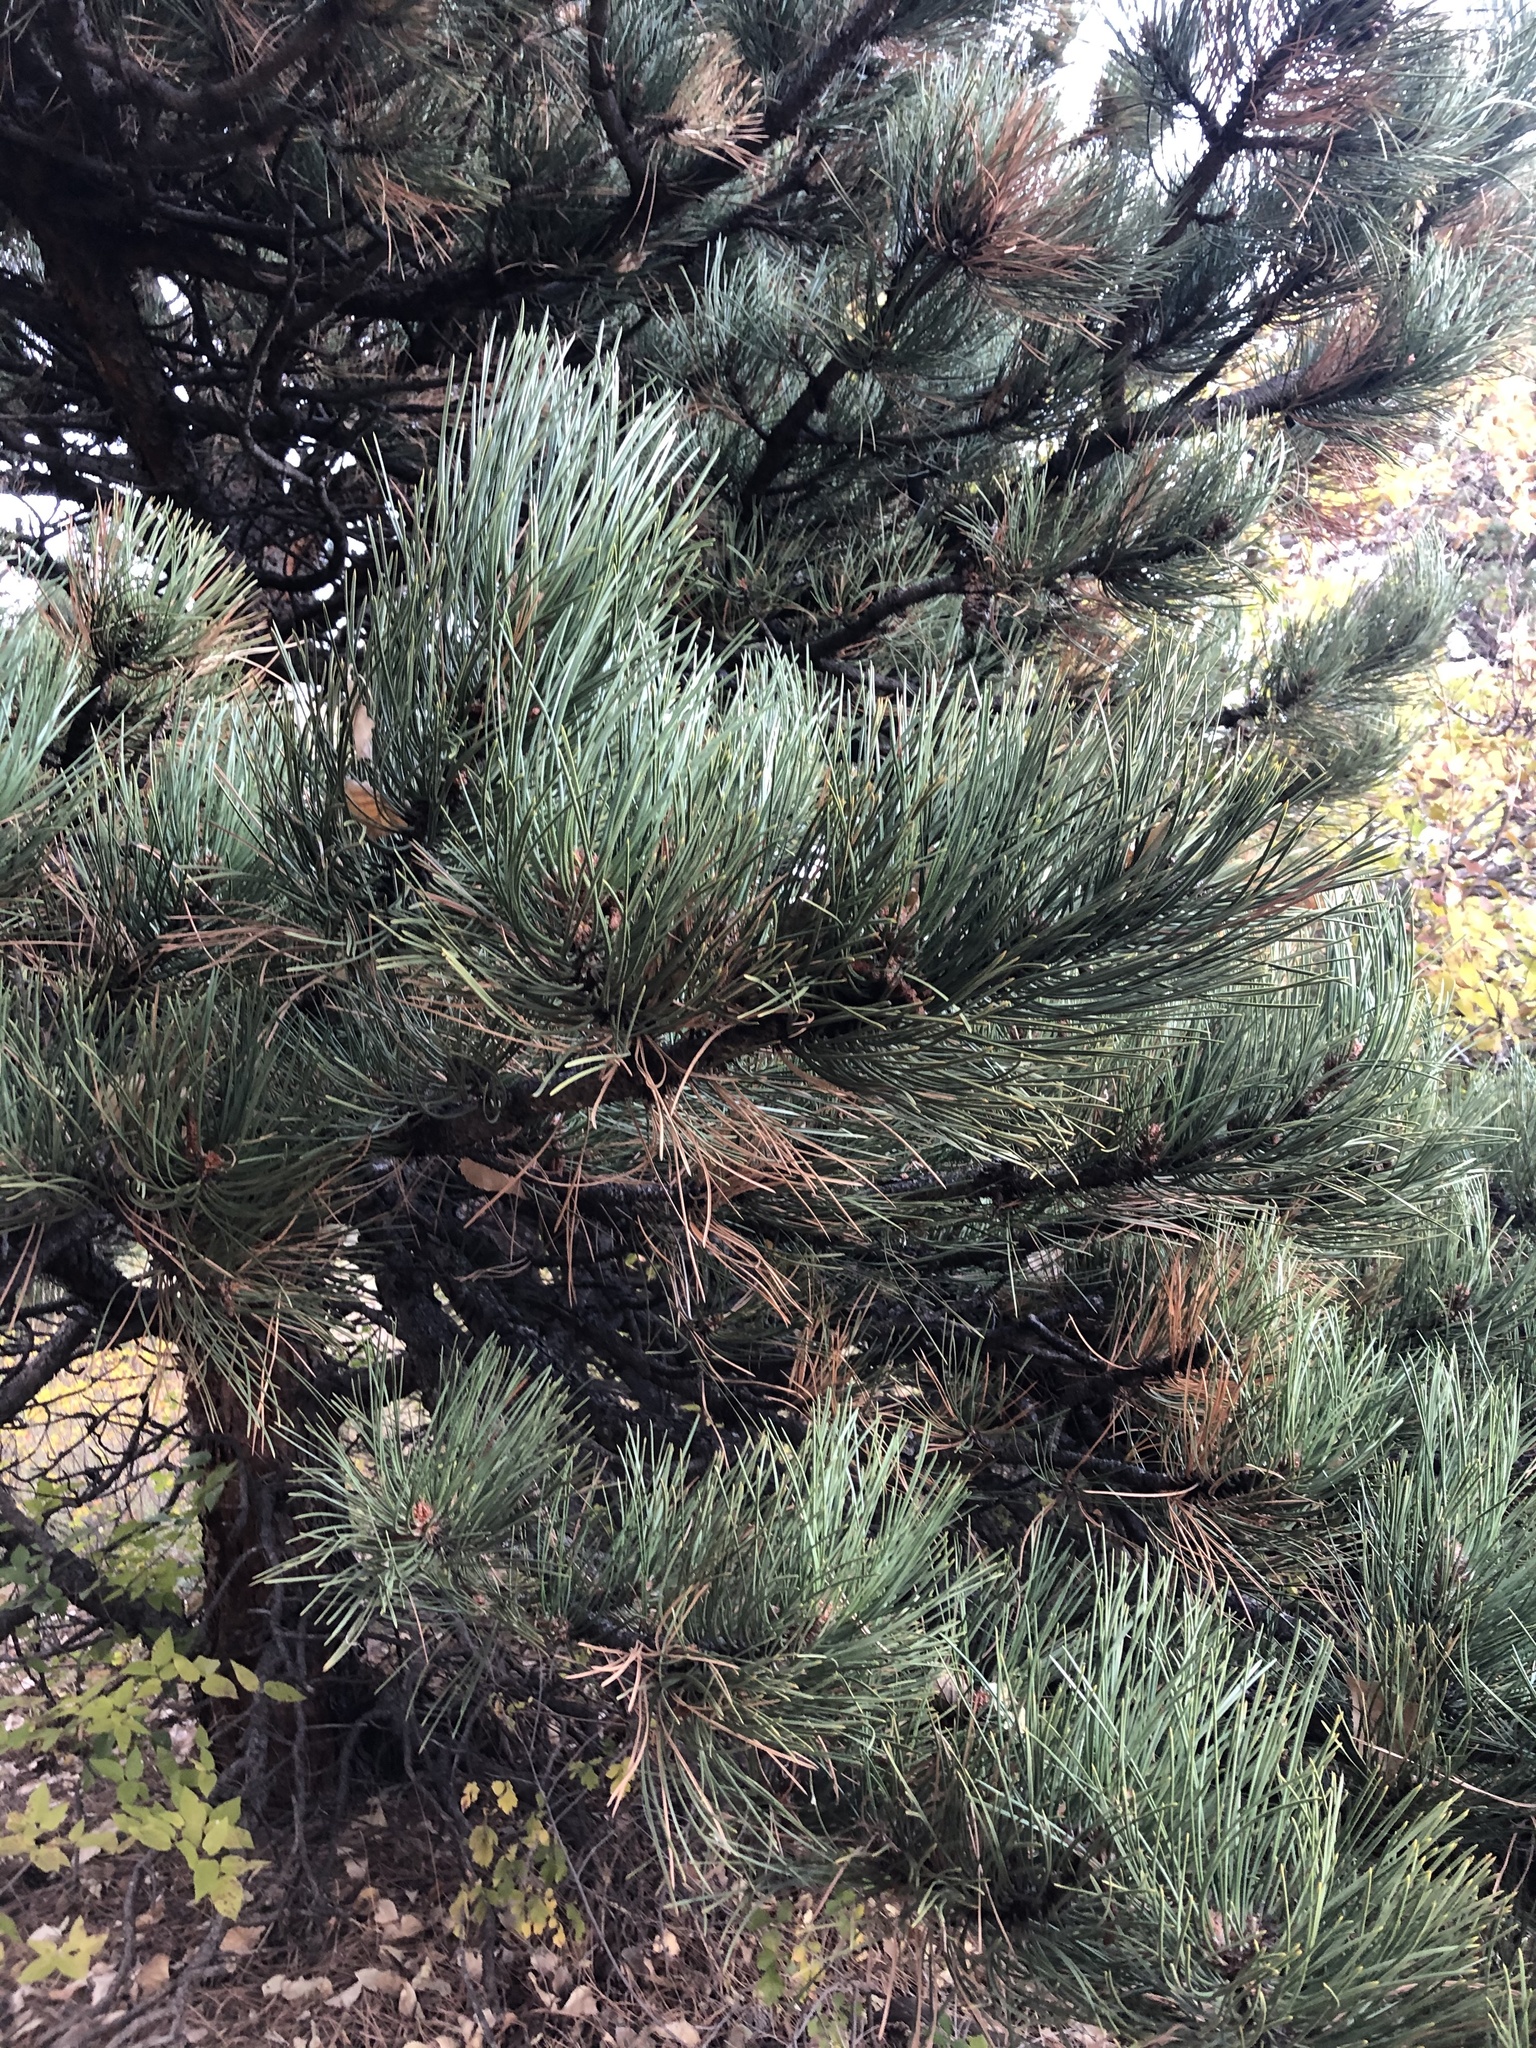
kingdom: Plantae
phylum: Tracheophyta
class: Pinopsida
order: Pinales
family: Pinaceae
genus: Pinus
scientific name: Pinus ponderosa
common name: Western yellow-pine
